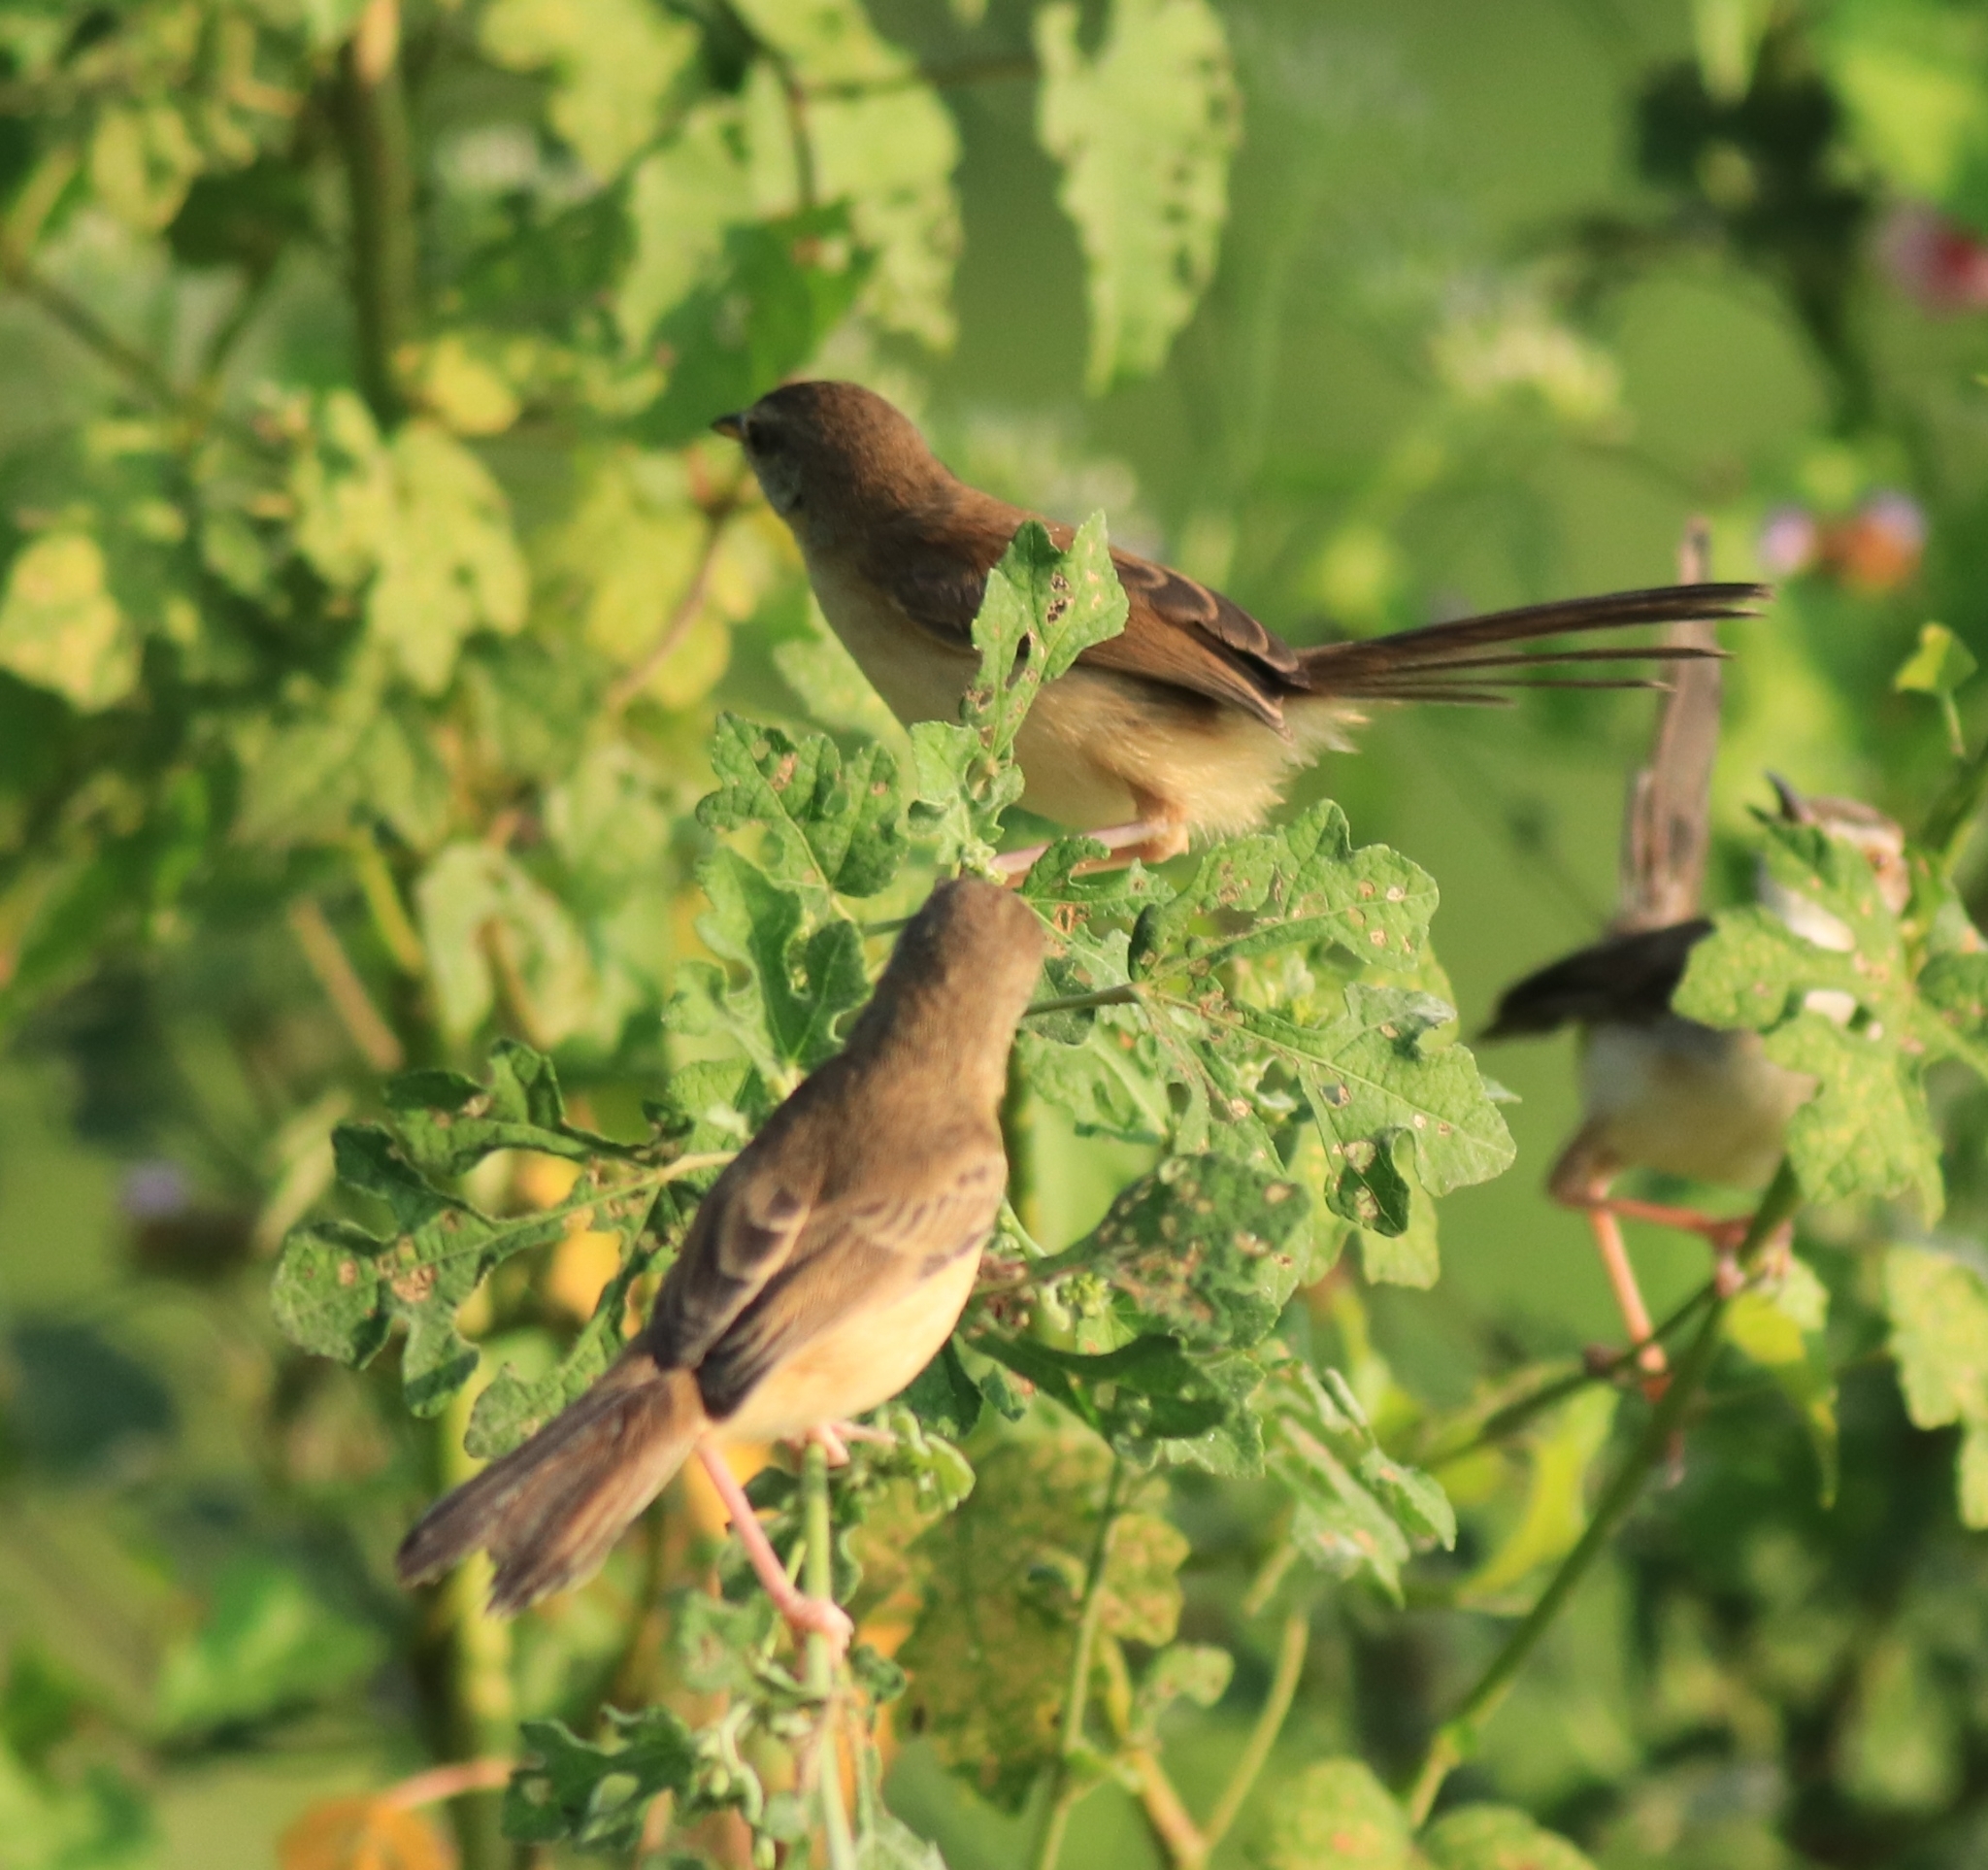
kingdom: Animalia
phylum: Chordata
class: Aves
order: Passeriformes
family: Cisticolidae
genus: Prinia
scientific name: Prinia inornata
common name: Plain prinia
